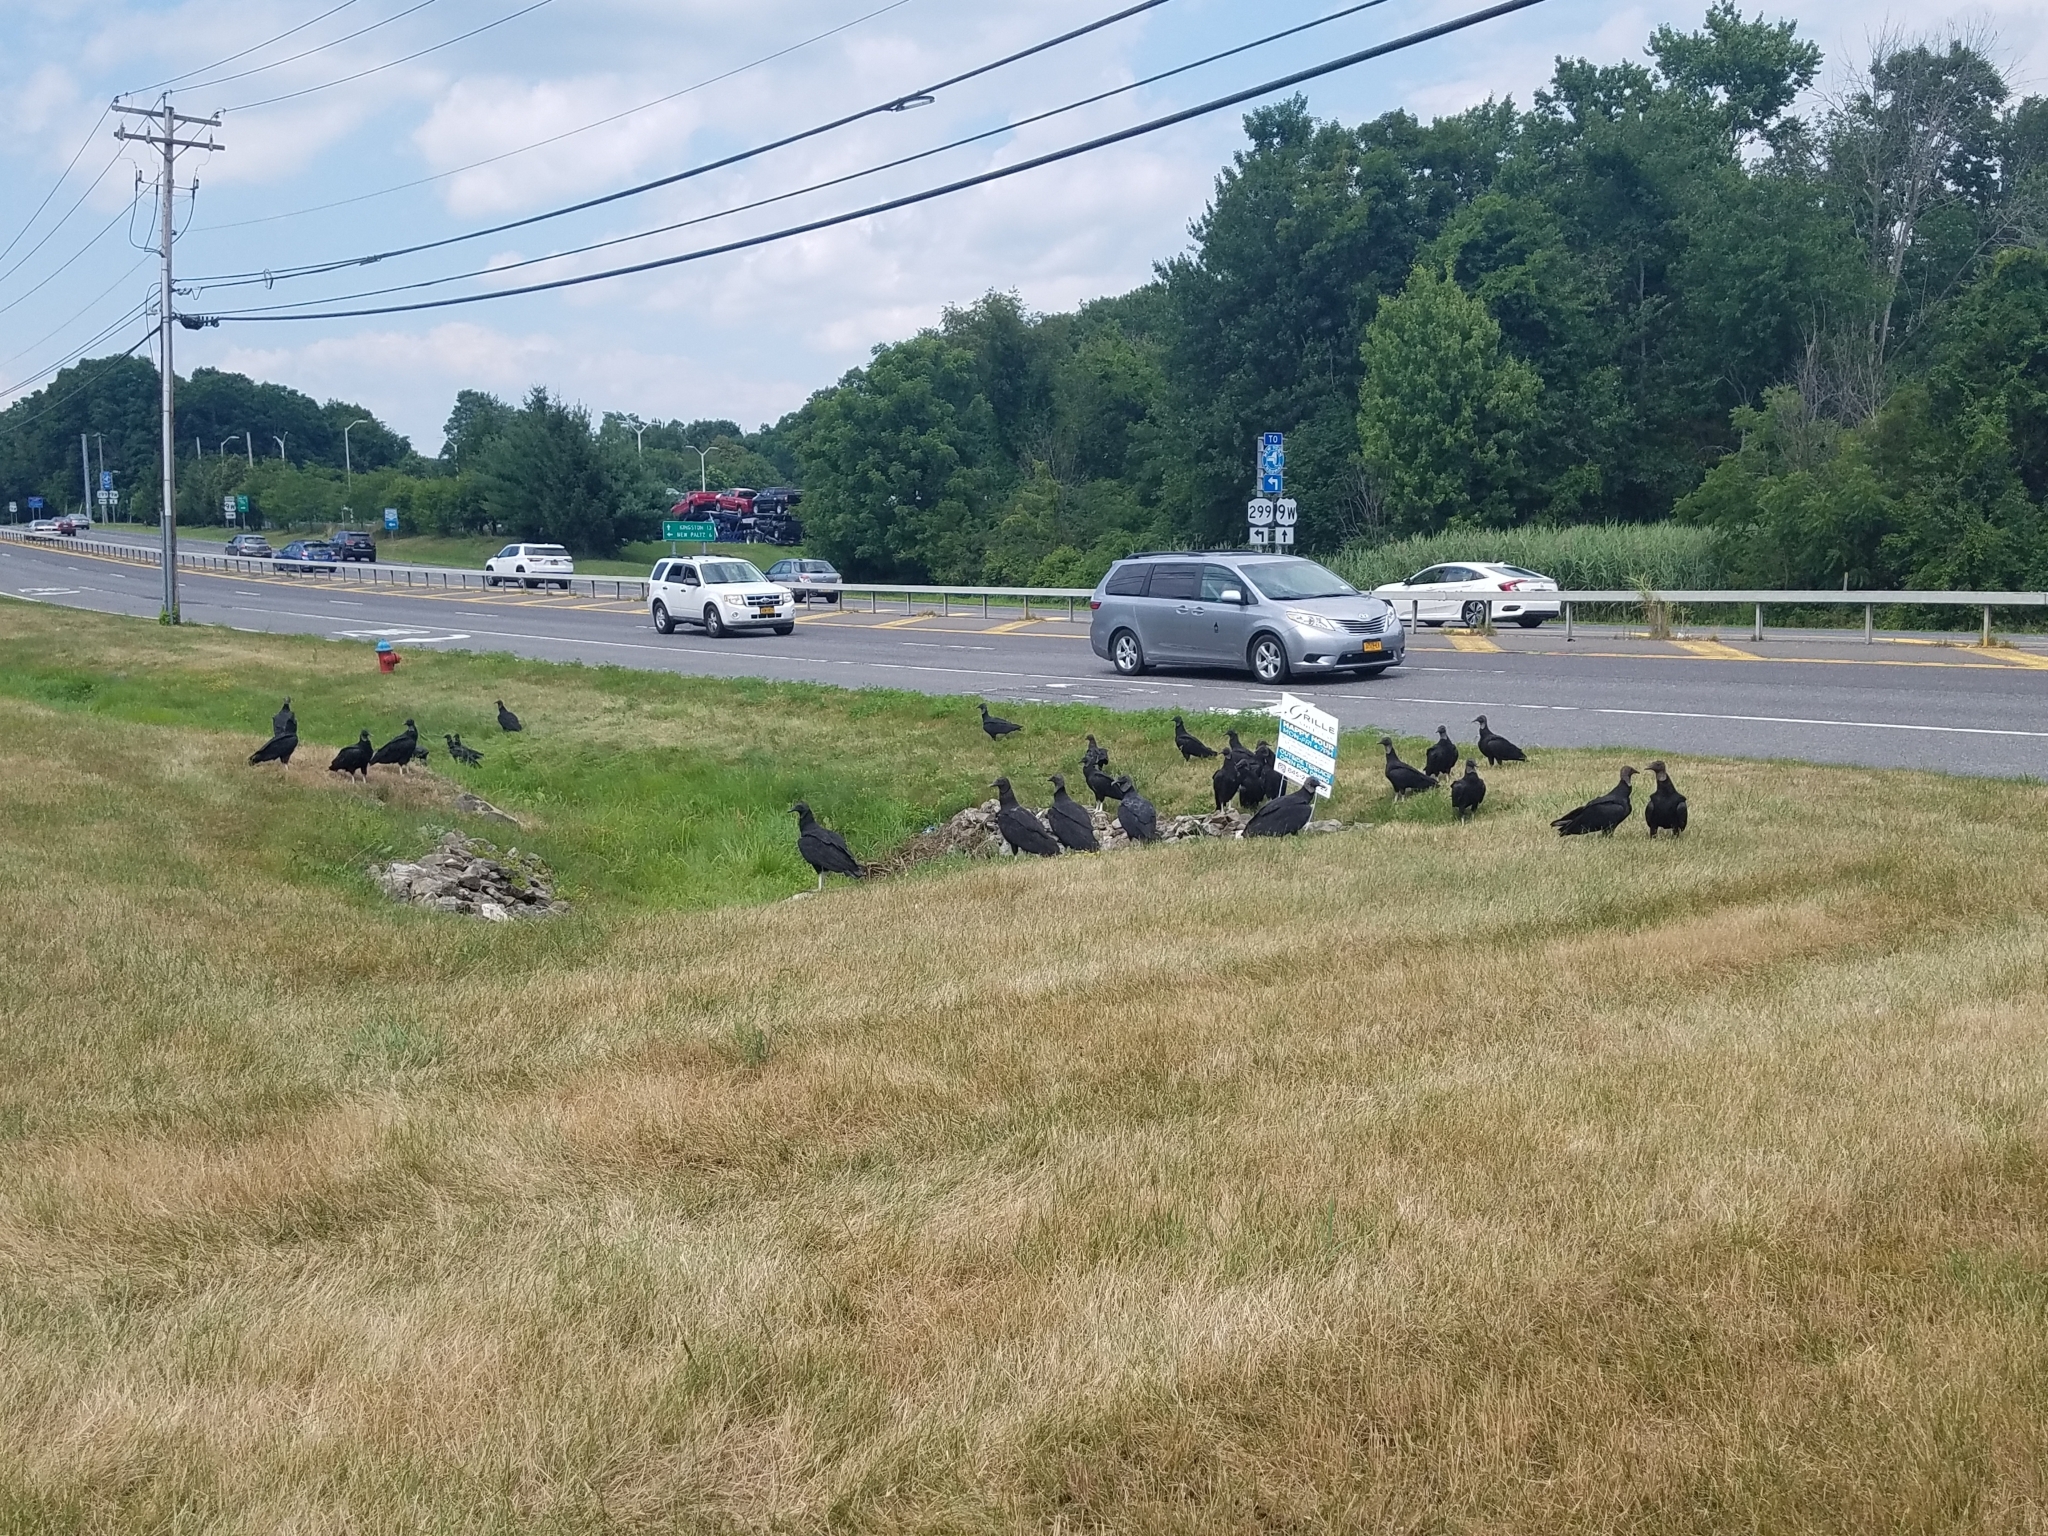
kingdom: Animalia
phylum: Chordata
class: Aves
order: Accipitriformes
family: Cathartidae
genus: Coragyps
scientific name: Coragyps atratus
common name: Black vulture
